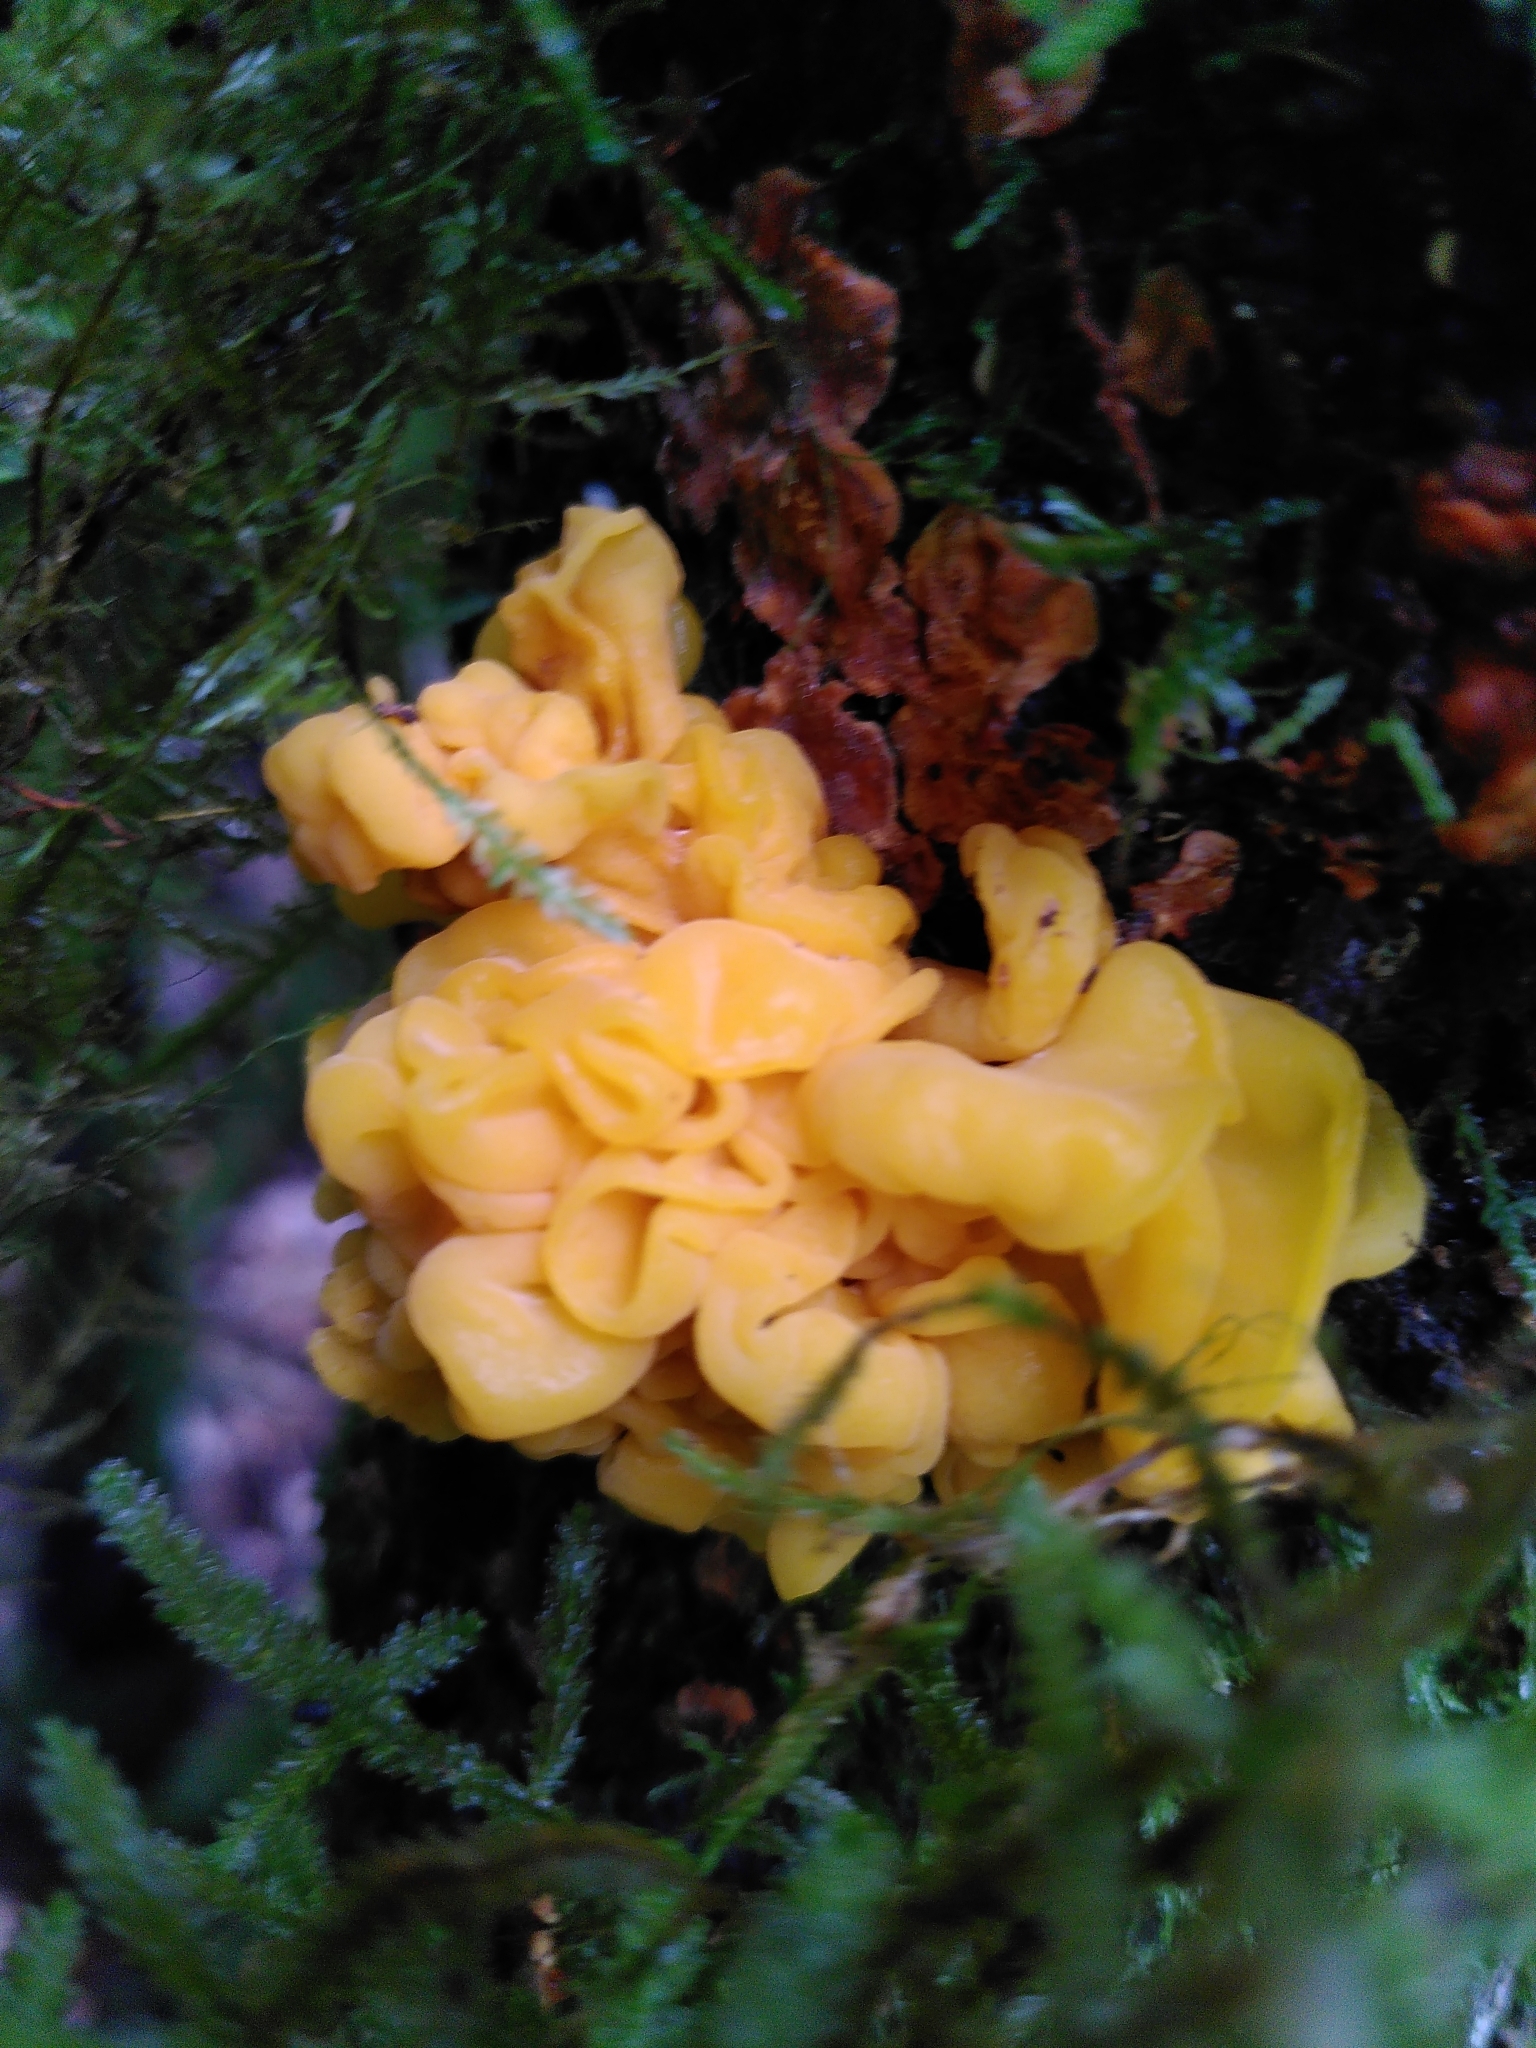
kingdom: Fungi
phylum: Basidiomycota
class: Tremellomycetes
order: Tremellales
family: Naemateliaceae
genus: Naematelia
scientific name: Naematelia aurantia
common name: Golden ear
